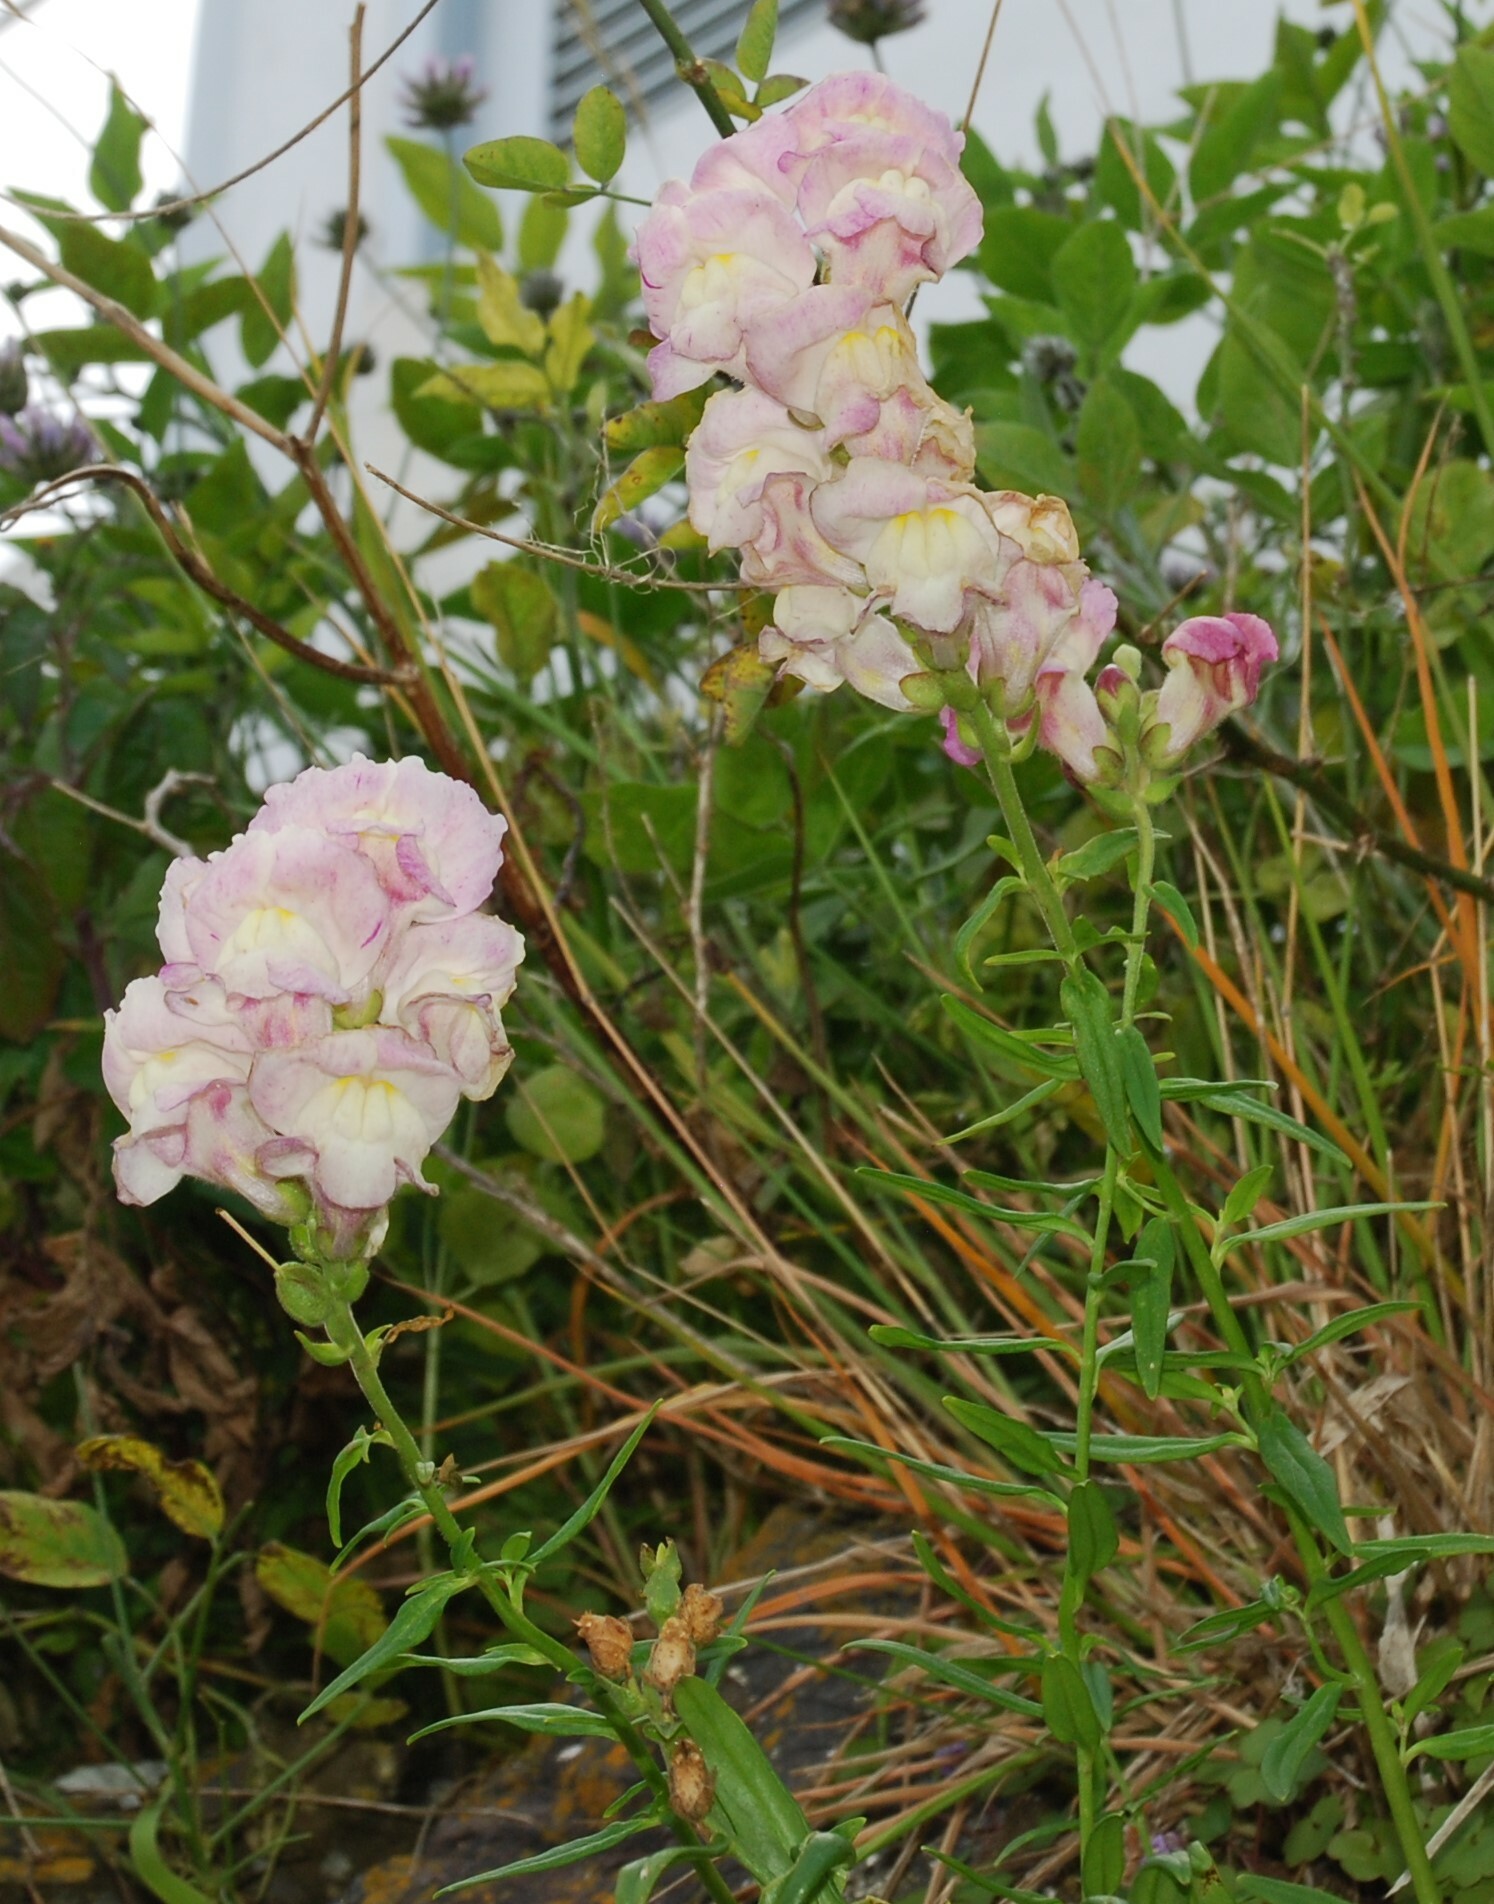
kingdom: Plantae
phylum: Tracheophyta
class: Magnoliopsida
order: Lamiales
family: Plantaginaceae
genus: Antirrhinum
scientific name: Antirrhinum majus
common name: Snapdragon
